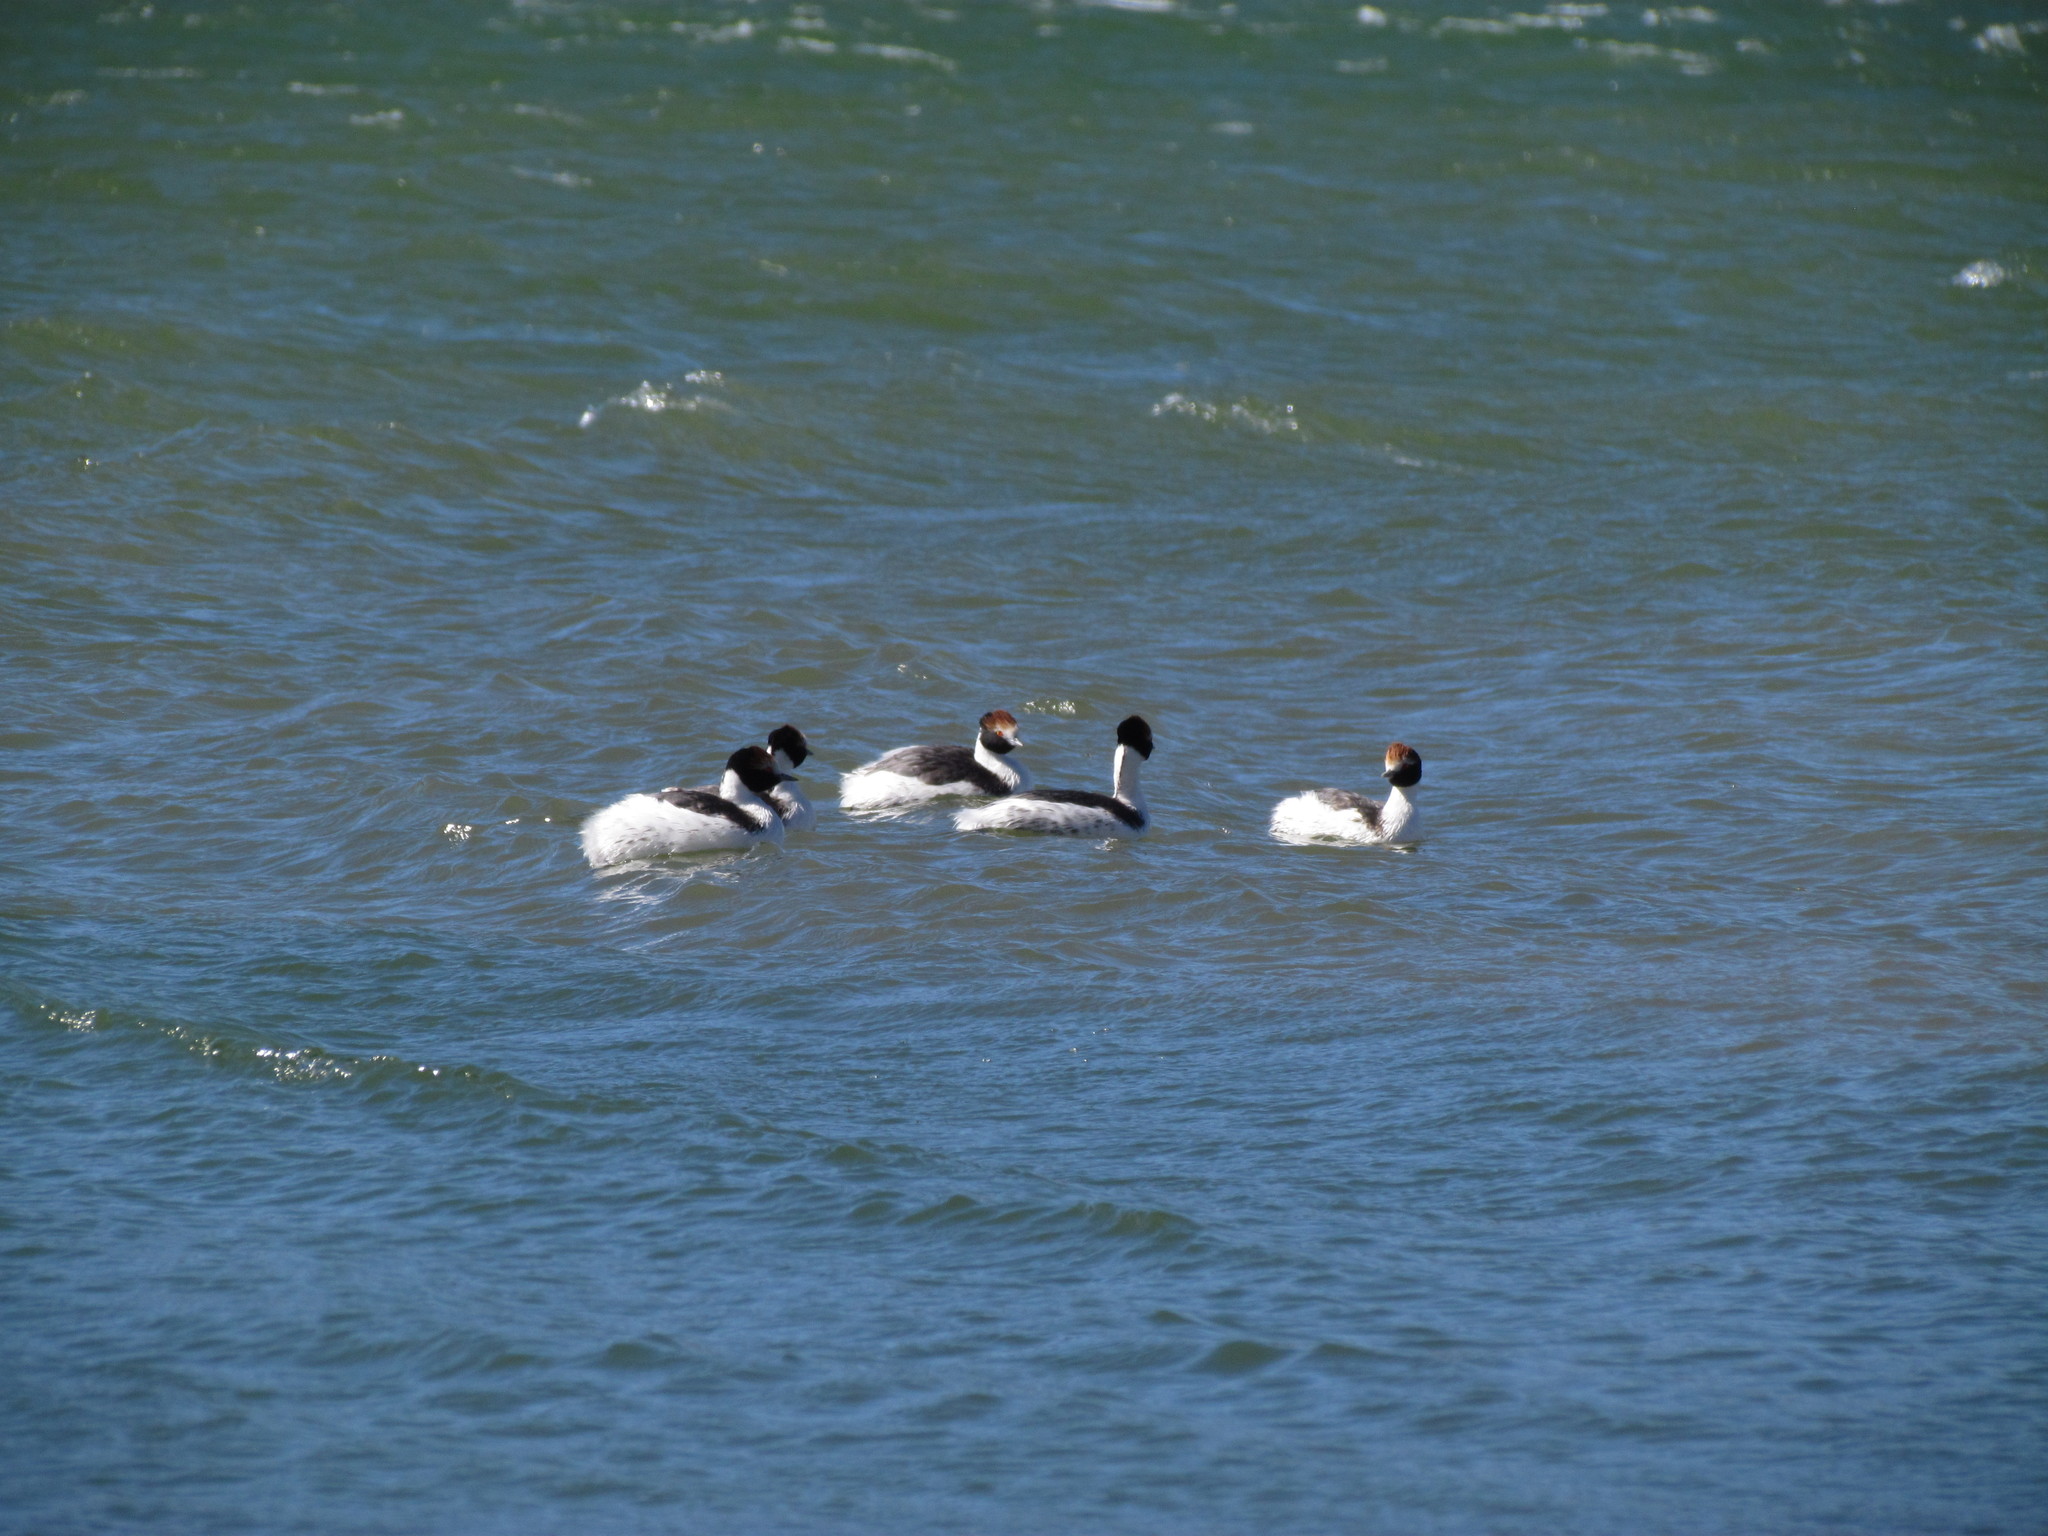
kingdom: Animalia
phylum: Chordata
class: Aves
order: Podicipediformes
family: Podicipedidae
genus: Podiceps
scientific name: Podiceps gallardoi
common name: Hooded grebe
